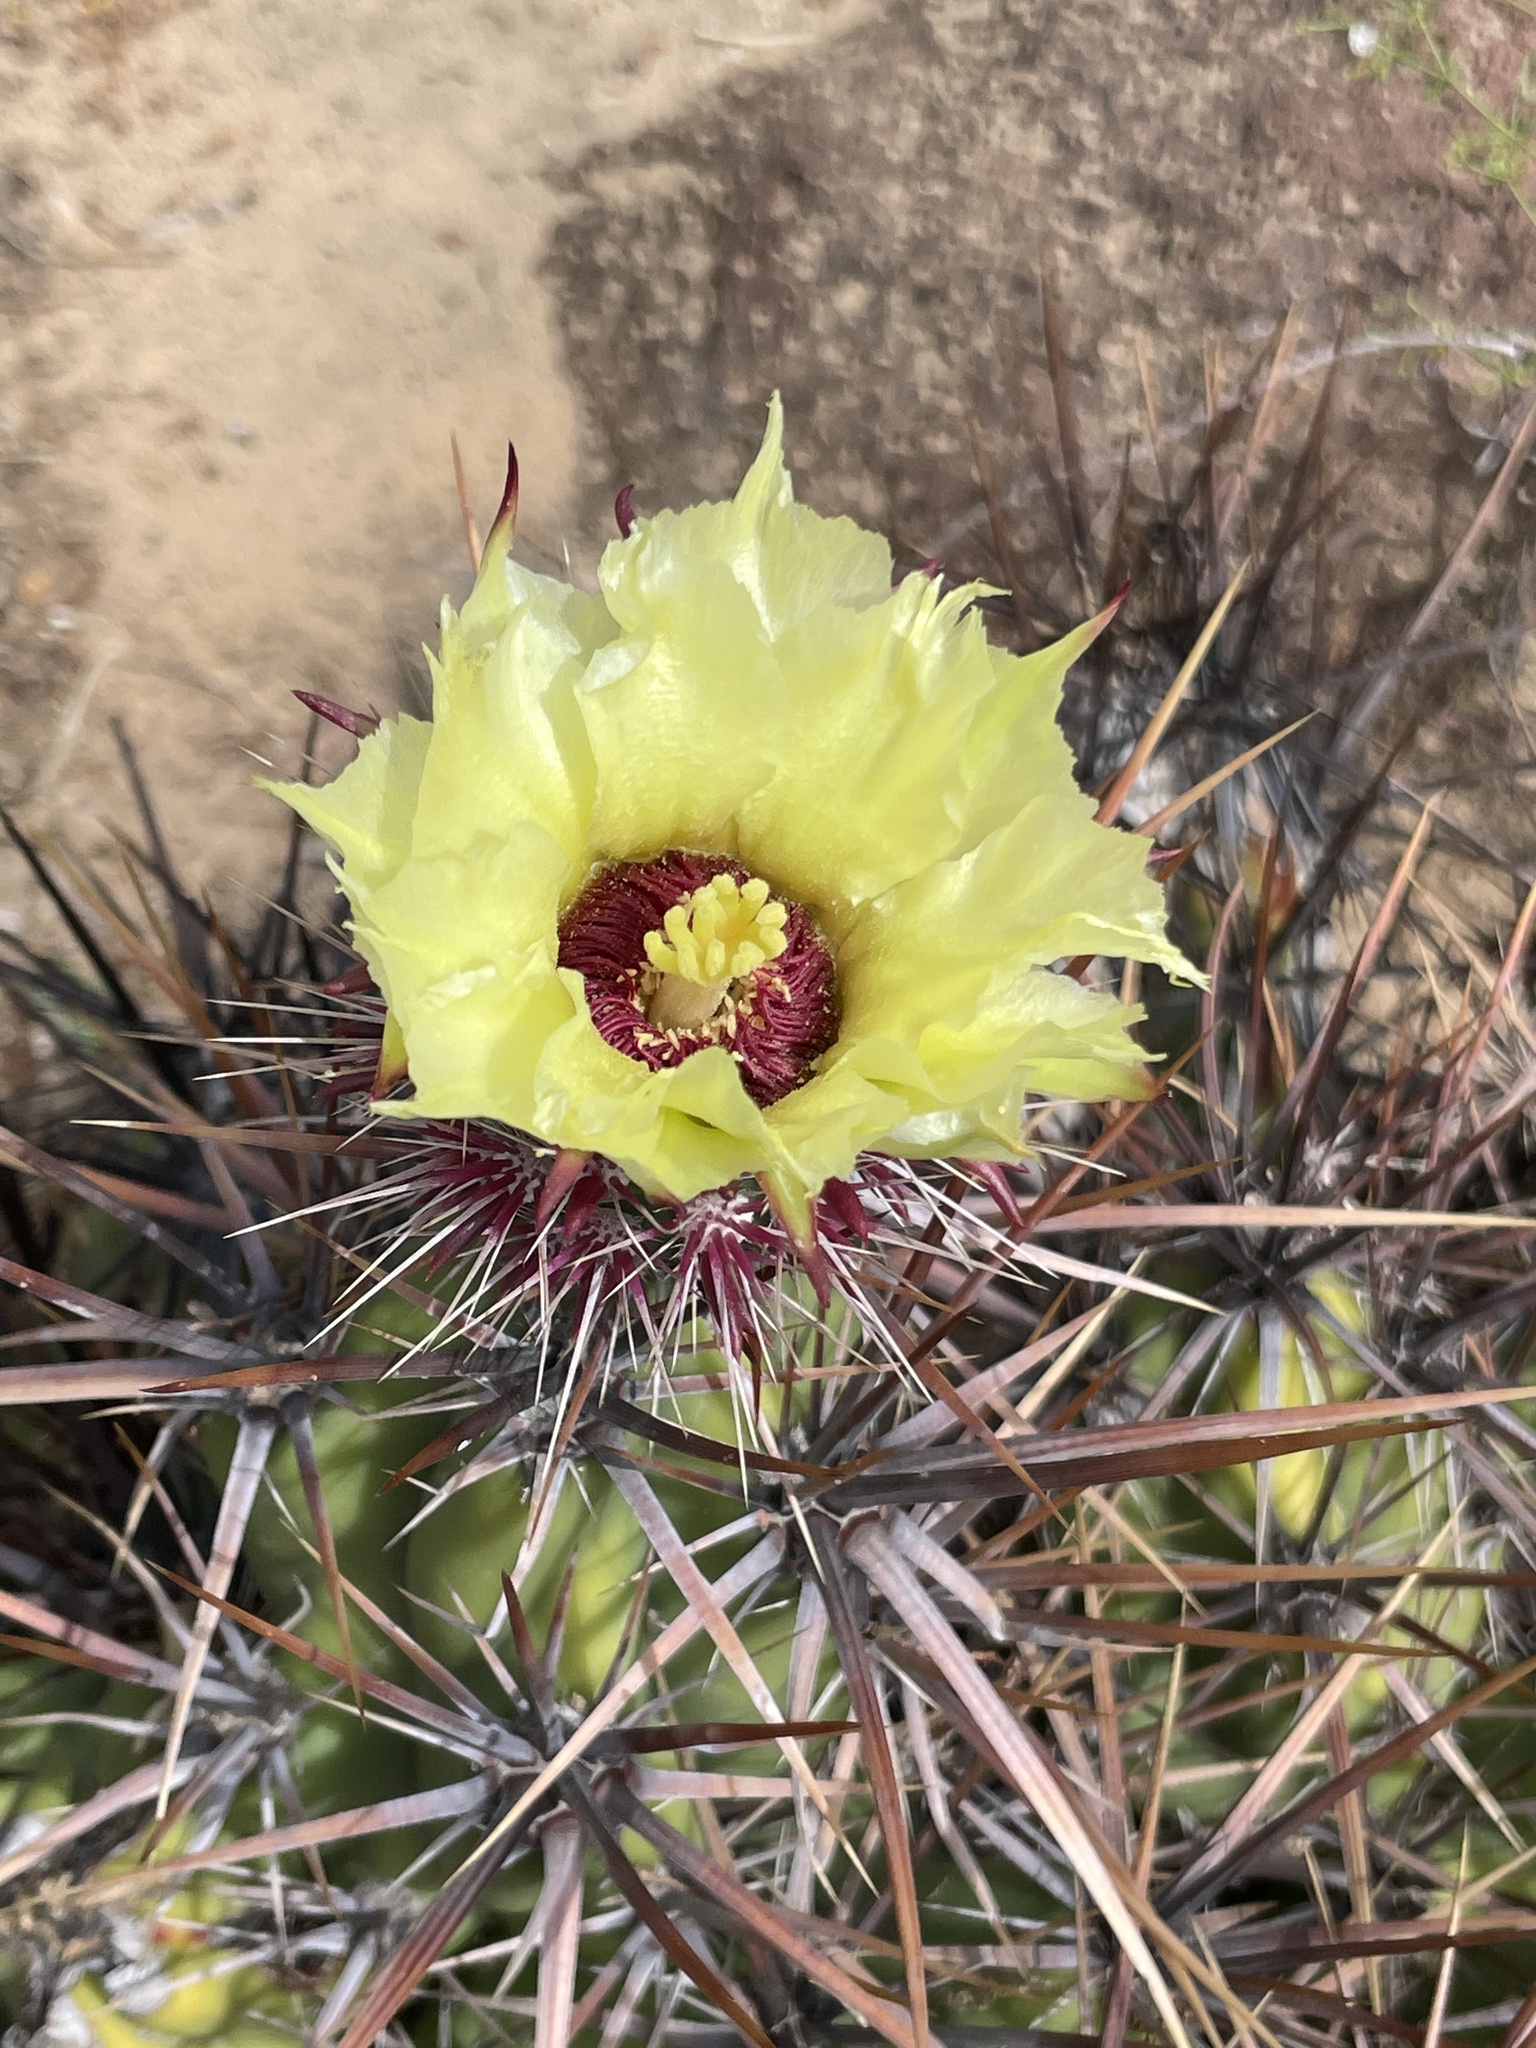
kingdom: Plantae
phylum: Tracheophyta
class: Magnoliopsida
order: Caryophyllales
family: Cactaceae
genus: Grusonia
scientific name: Grusonia invicta
